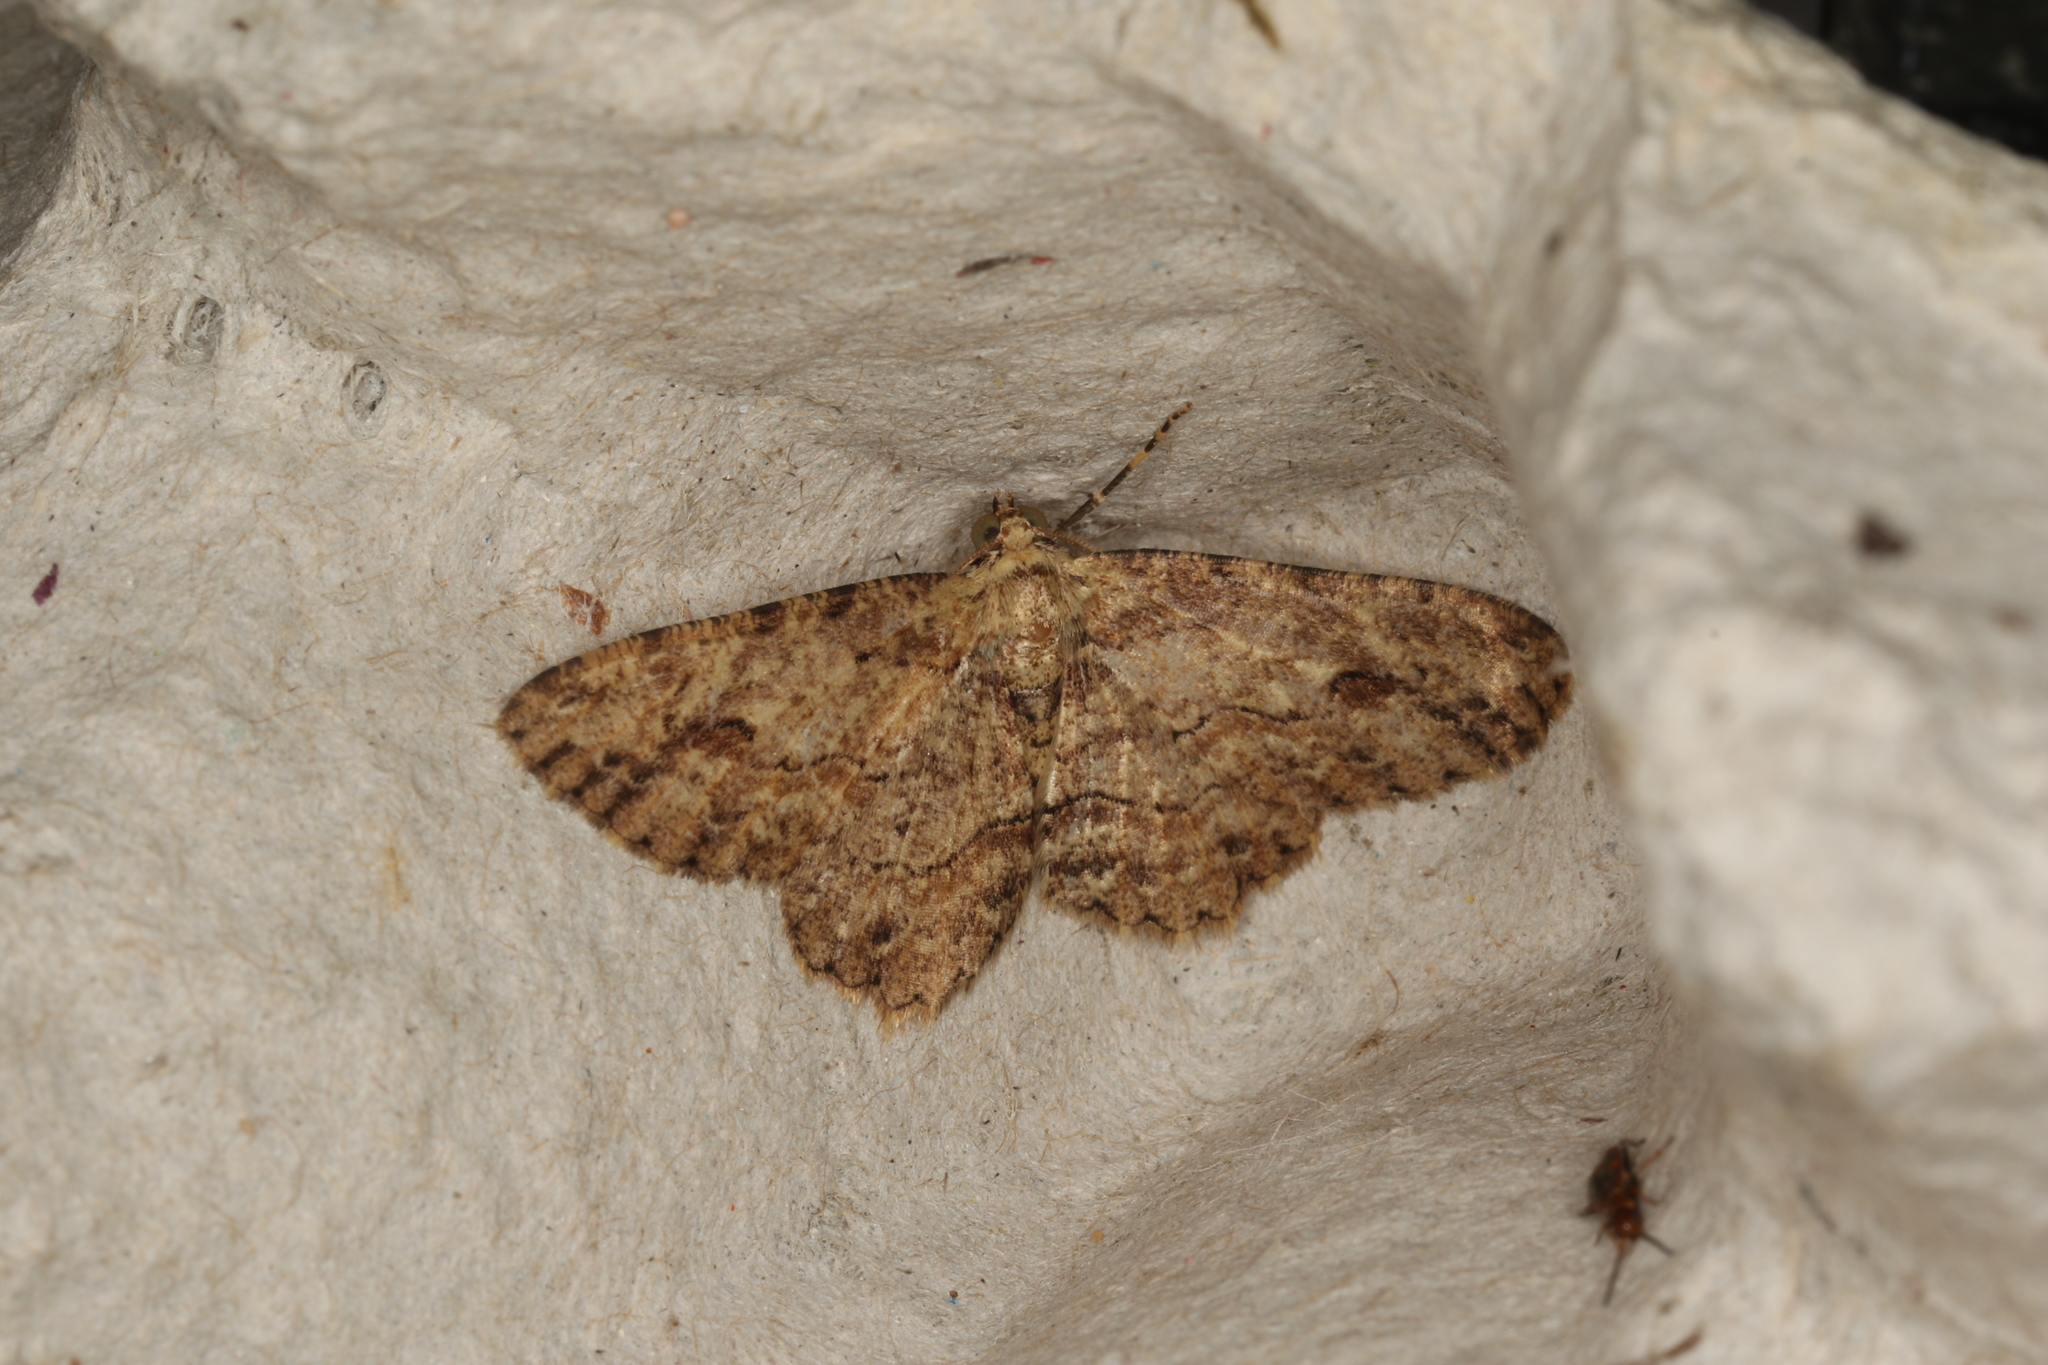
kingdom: Animalia
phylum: Arthropoda
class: Insecta
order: Lepidoptera
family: Geometridae
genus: Ectropis
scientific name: Ectropis excursaria
